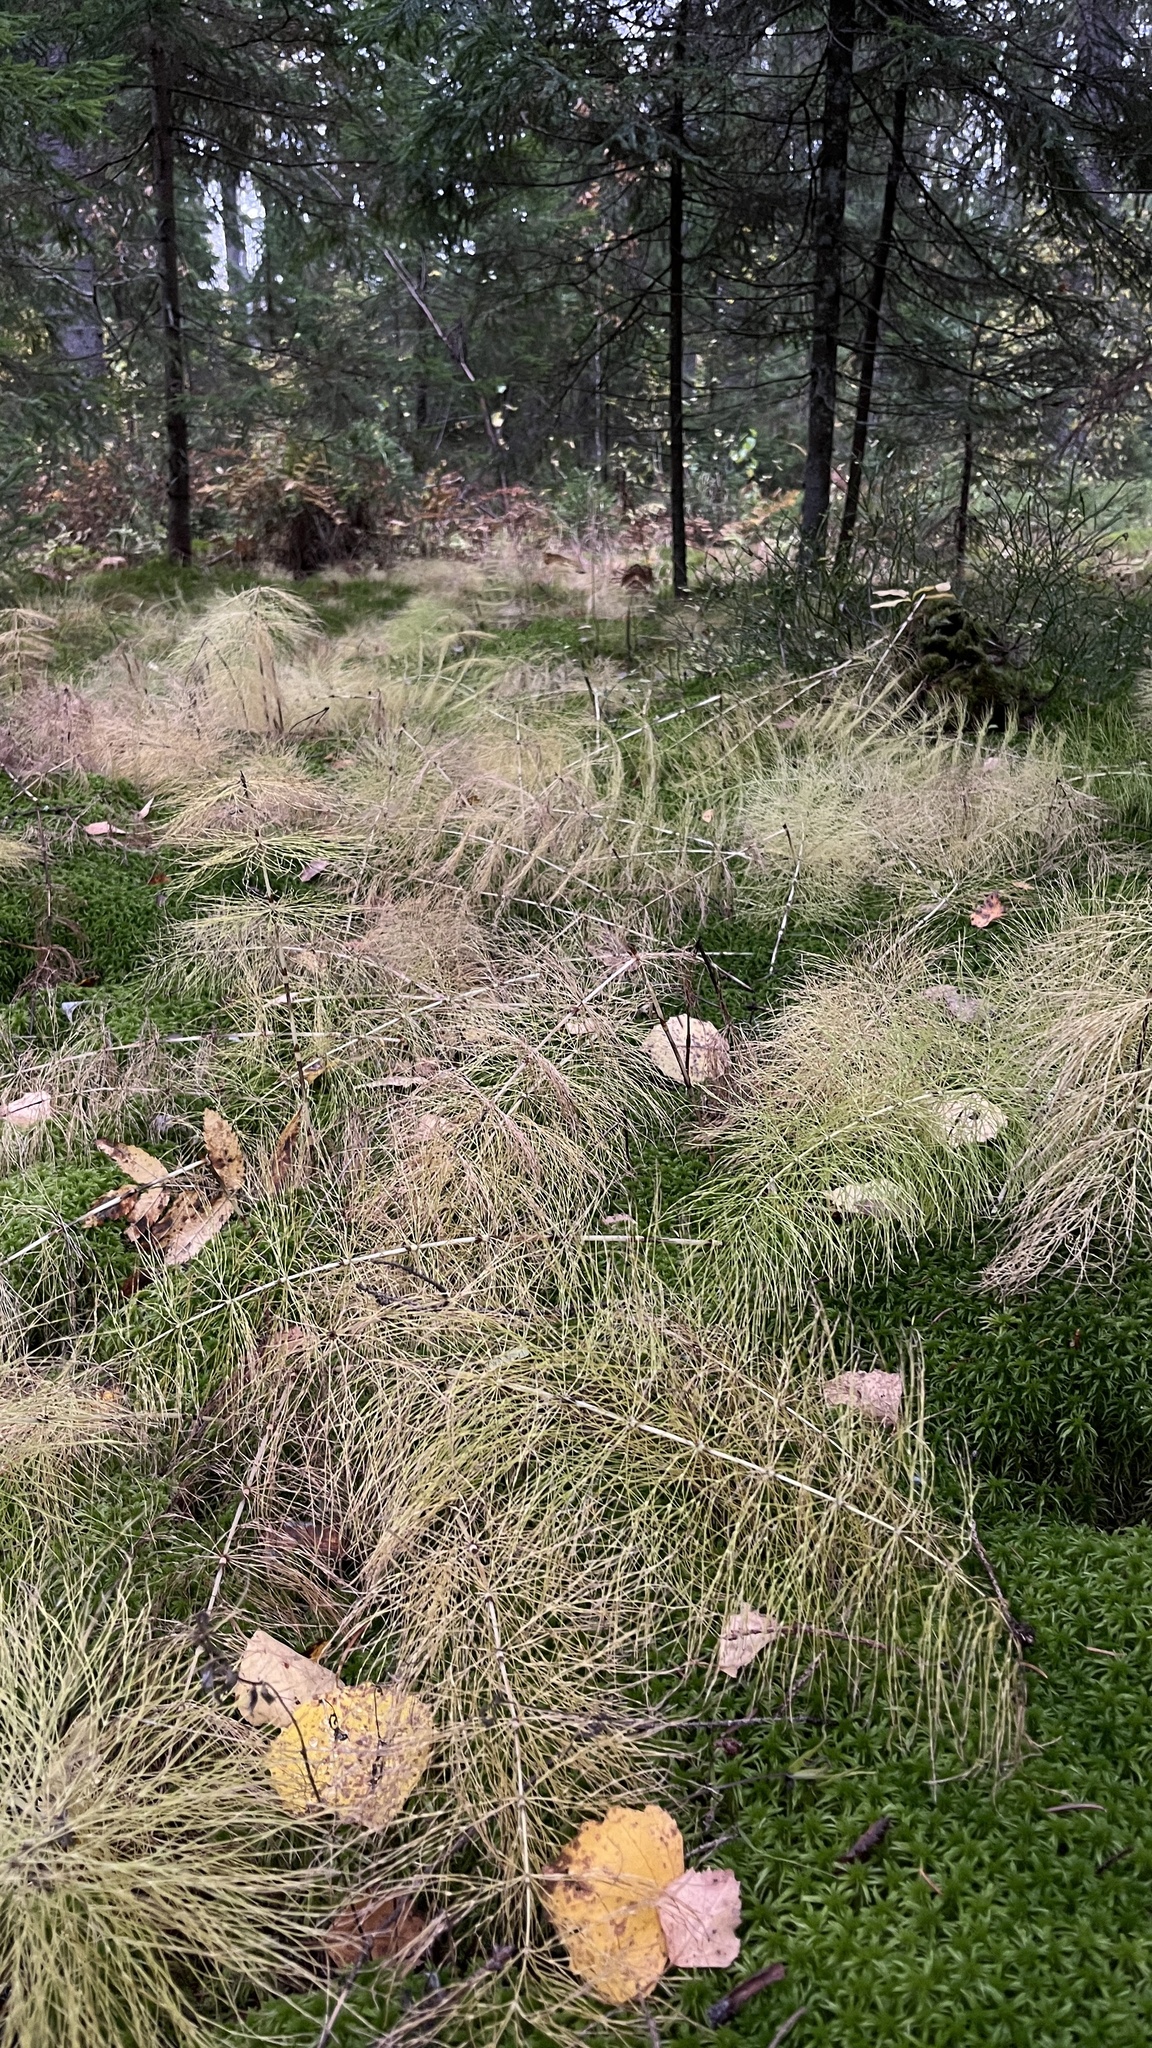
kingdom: Plantae
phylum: Tracheophyta
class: Polypodiopsida
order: Equisetales
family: Equisetaceae
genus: Equisetum
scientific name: Equisetum sylvaticum
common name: Wood horsetail
